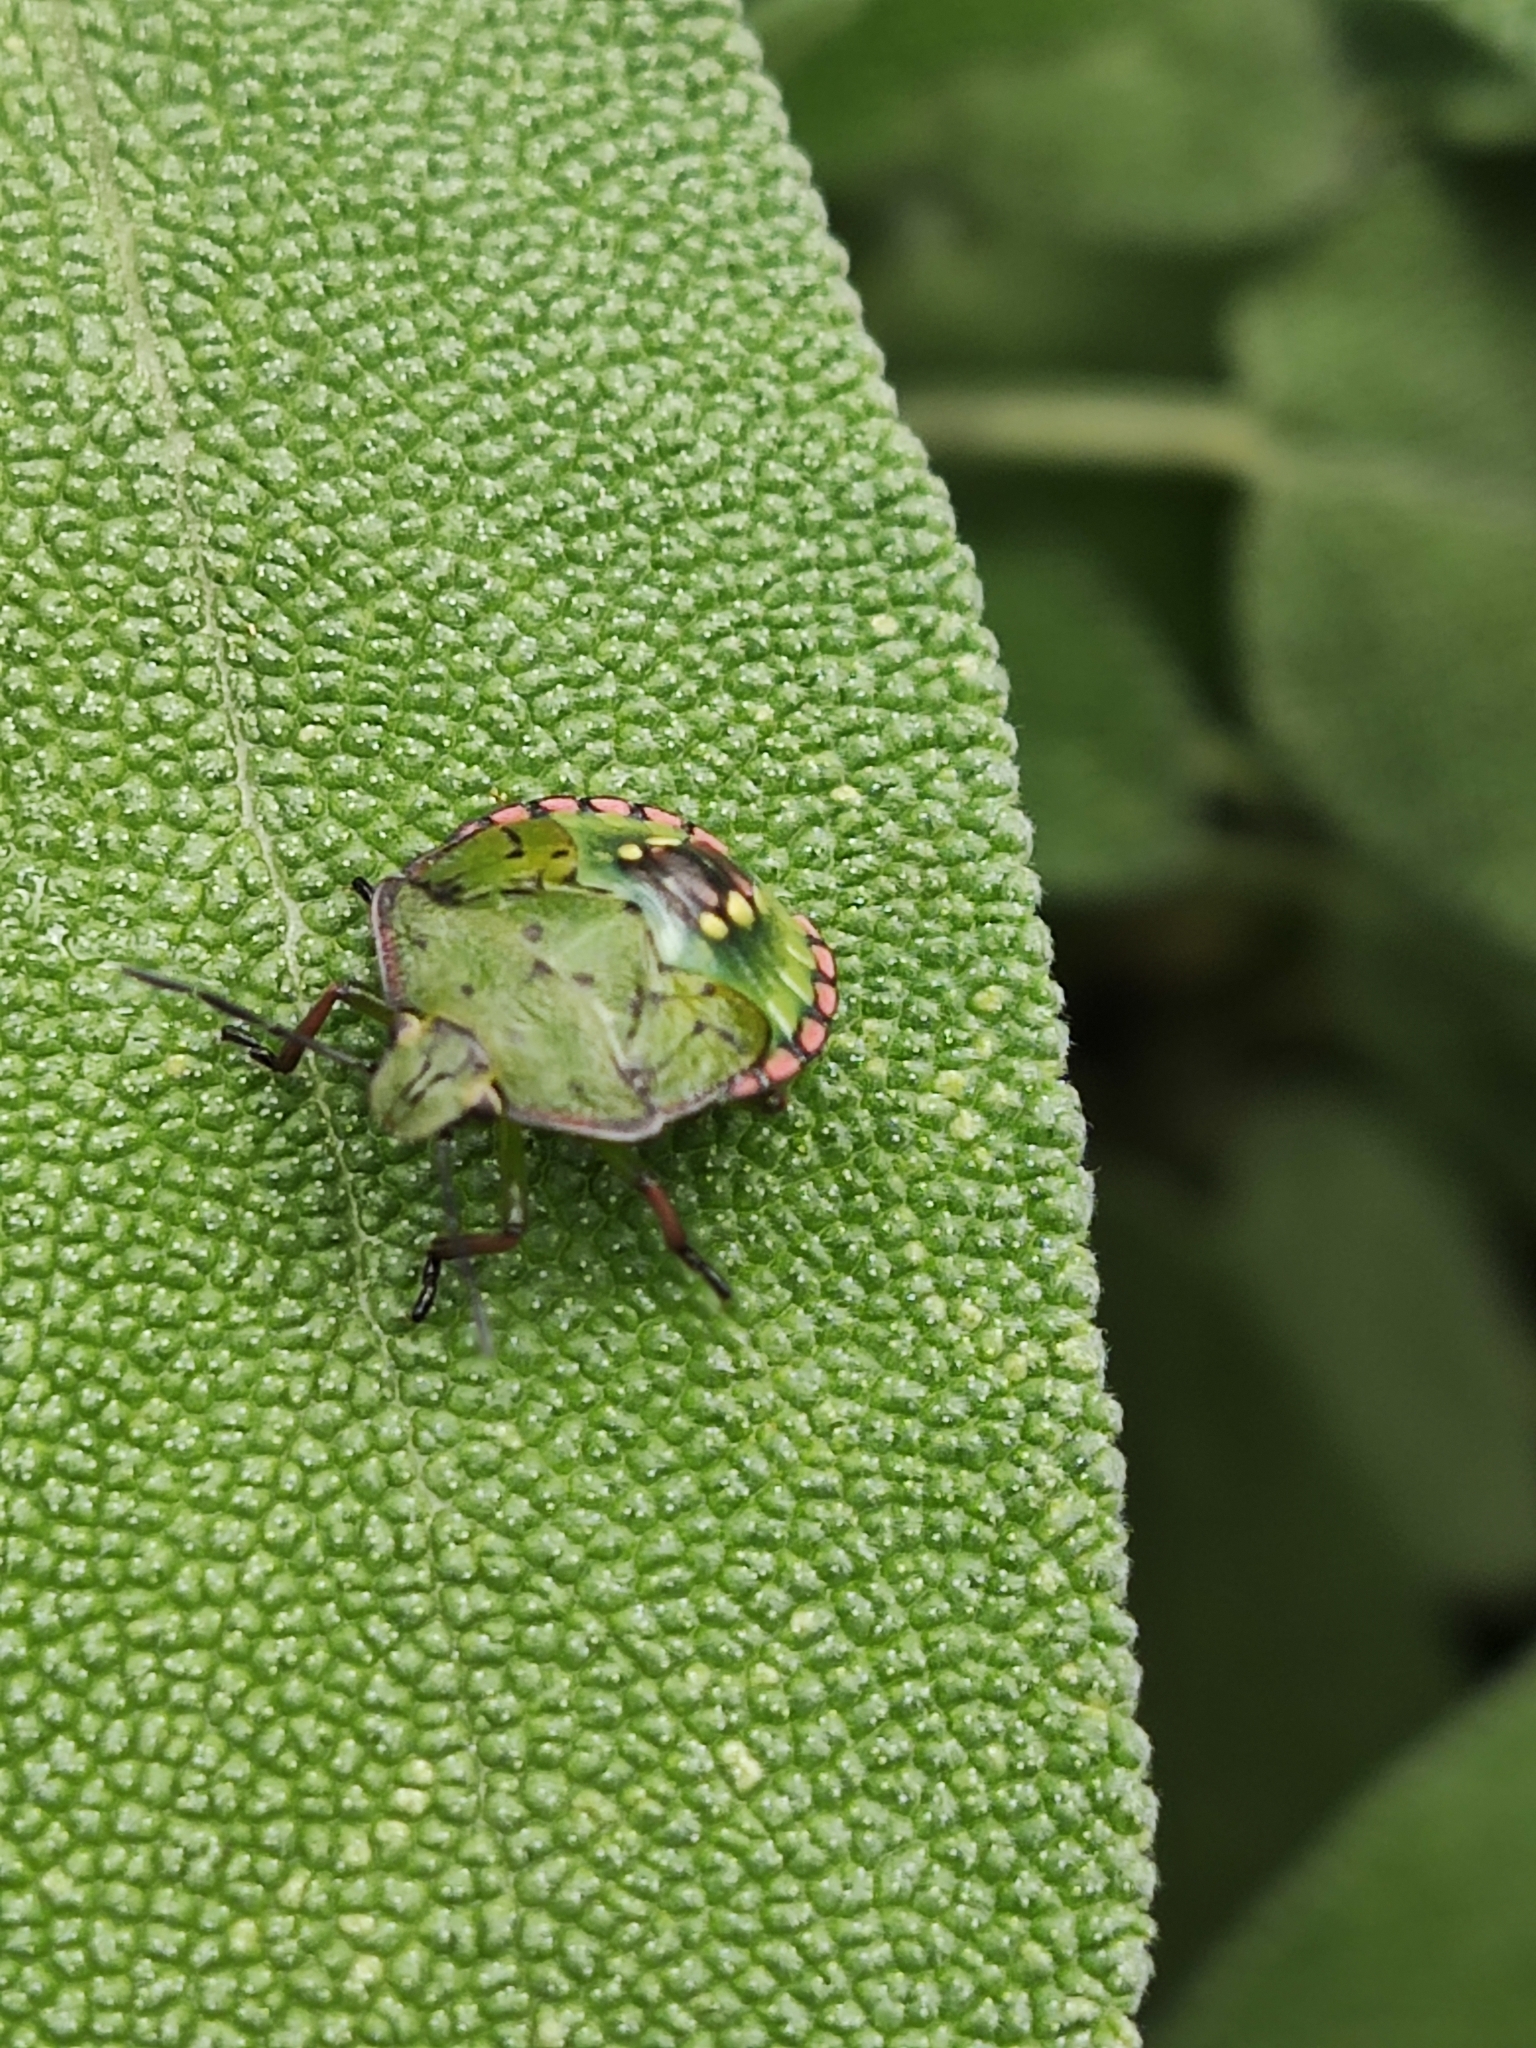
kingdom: Animalia
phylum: Arthropoda
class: Insecta
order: Hemiptera
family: Pentatomidae
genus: Nezara
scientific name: Nezara viridula
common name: Southern green stink bug
